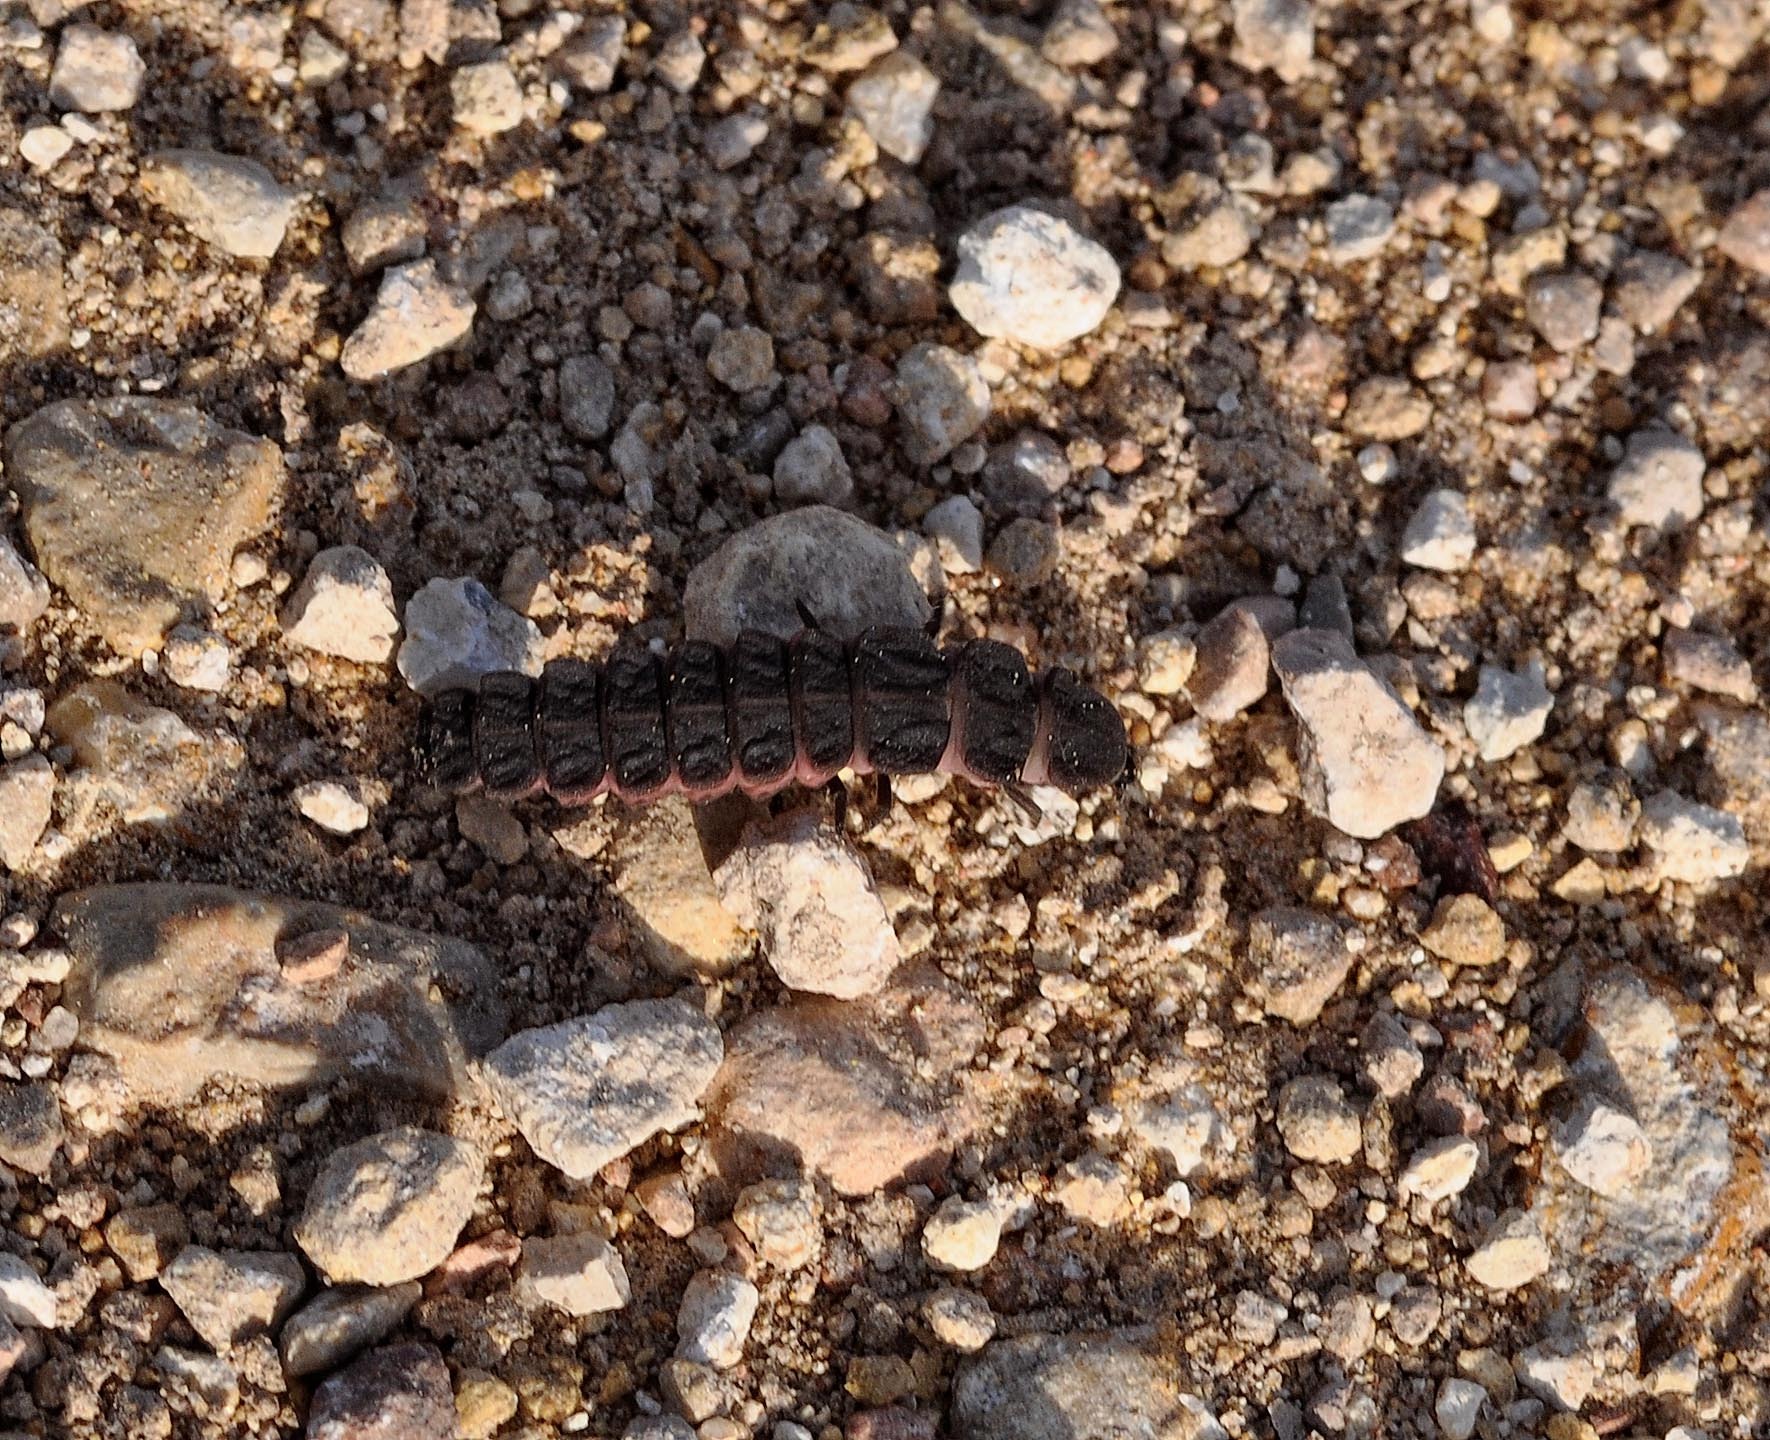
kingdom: Animalia
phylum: Arthropoda
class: Insecta
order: Coleoptera
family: Lampyridae
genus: Nyctophila
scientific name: Nyctophila reichii
